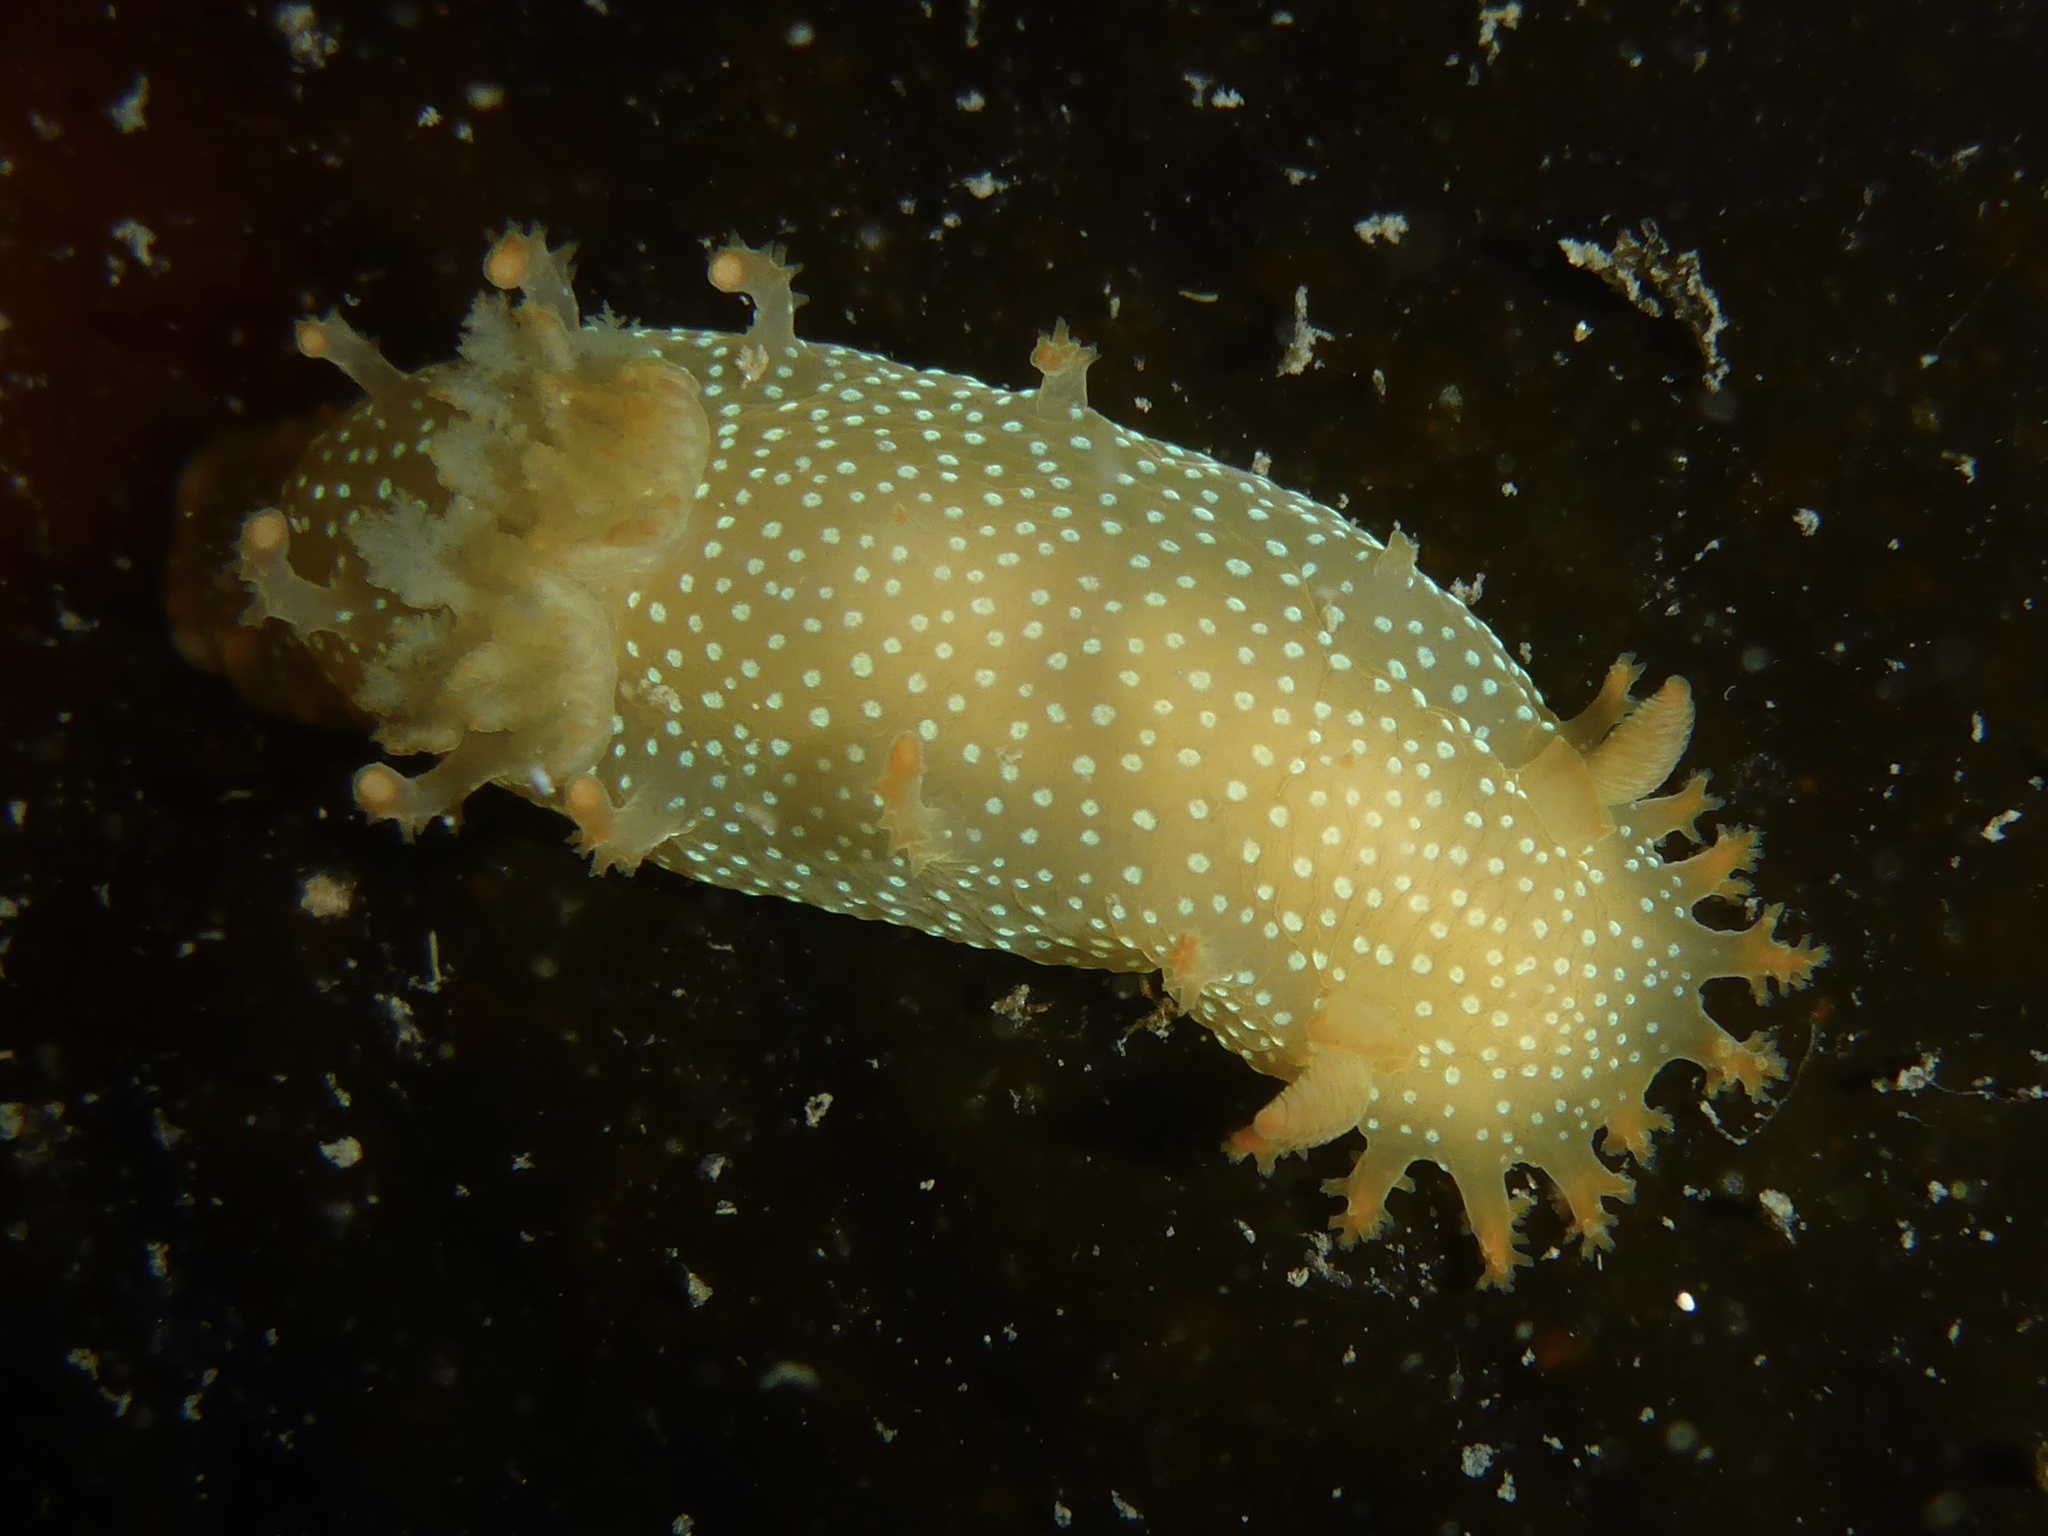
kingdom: Animalia
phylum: Mollusca
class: Gastropoda
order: Nudibranchia
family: Polyceridae
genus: Triopha
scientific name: Triopha maculata
